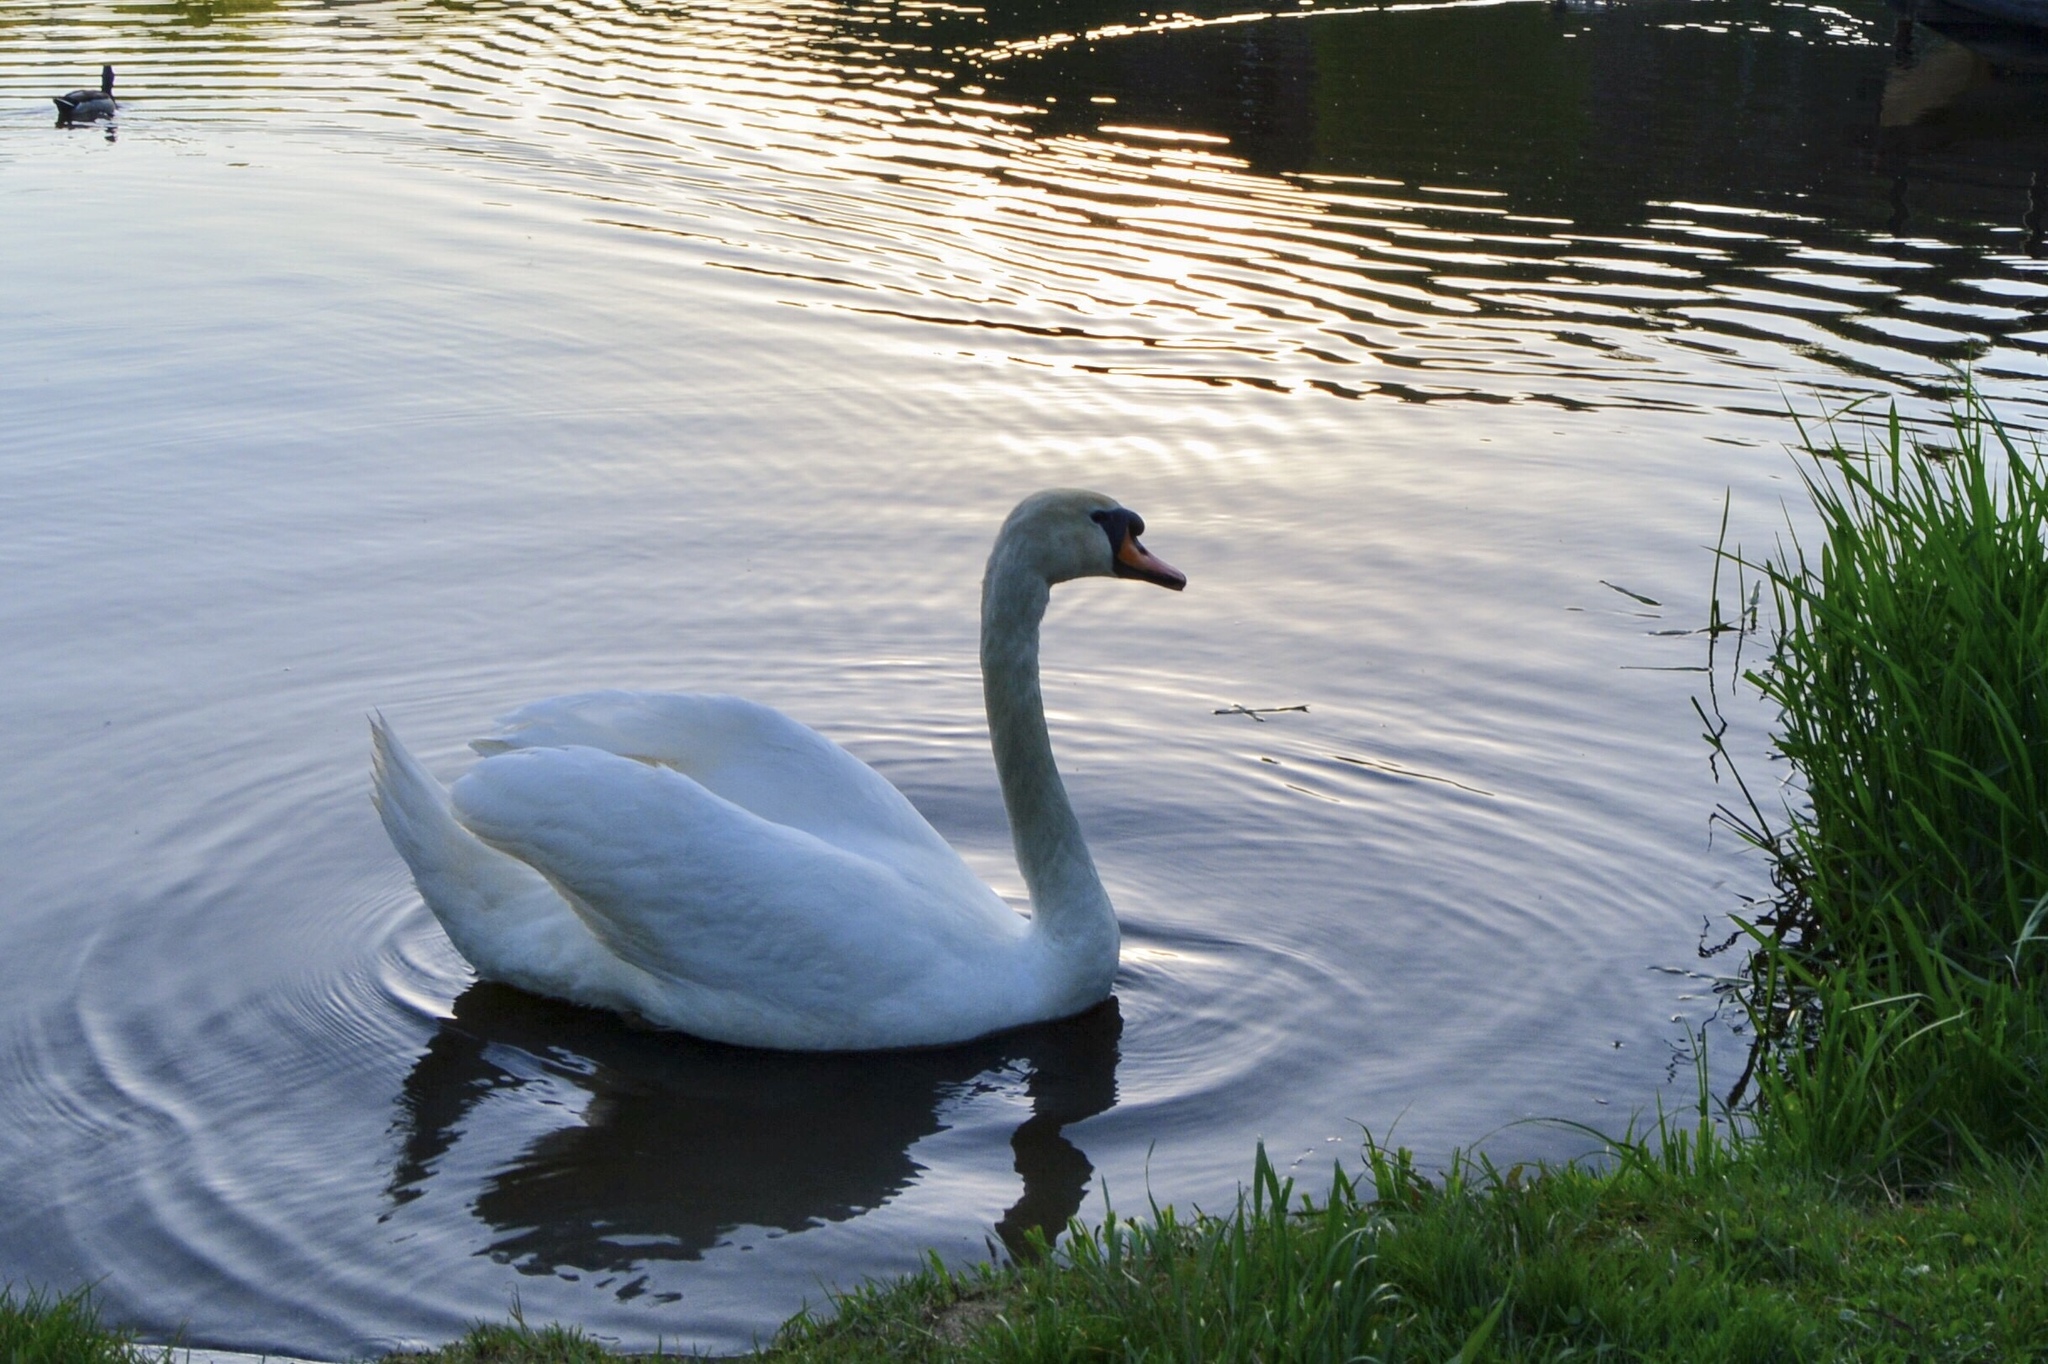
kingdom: Animalia
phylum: Chordata
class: Aves
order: Anseriformes
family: Anatidae
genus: Cygnus
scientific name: Cygnus olor
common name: Mute swan
